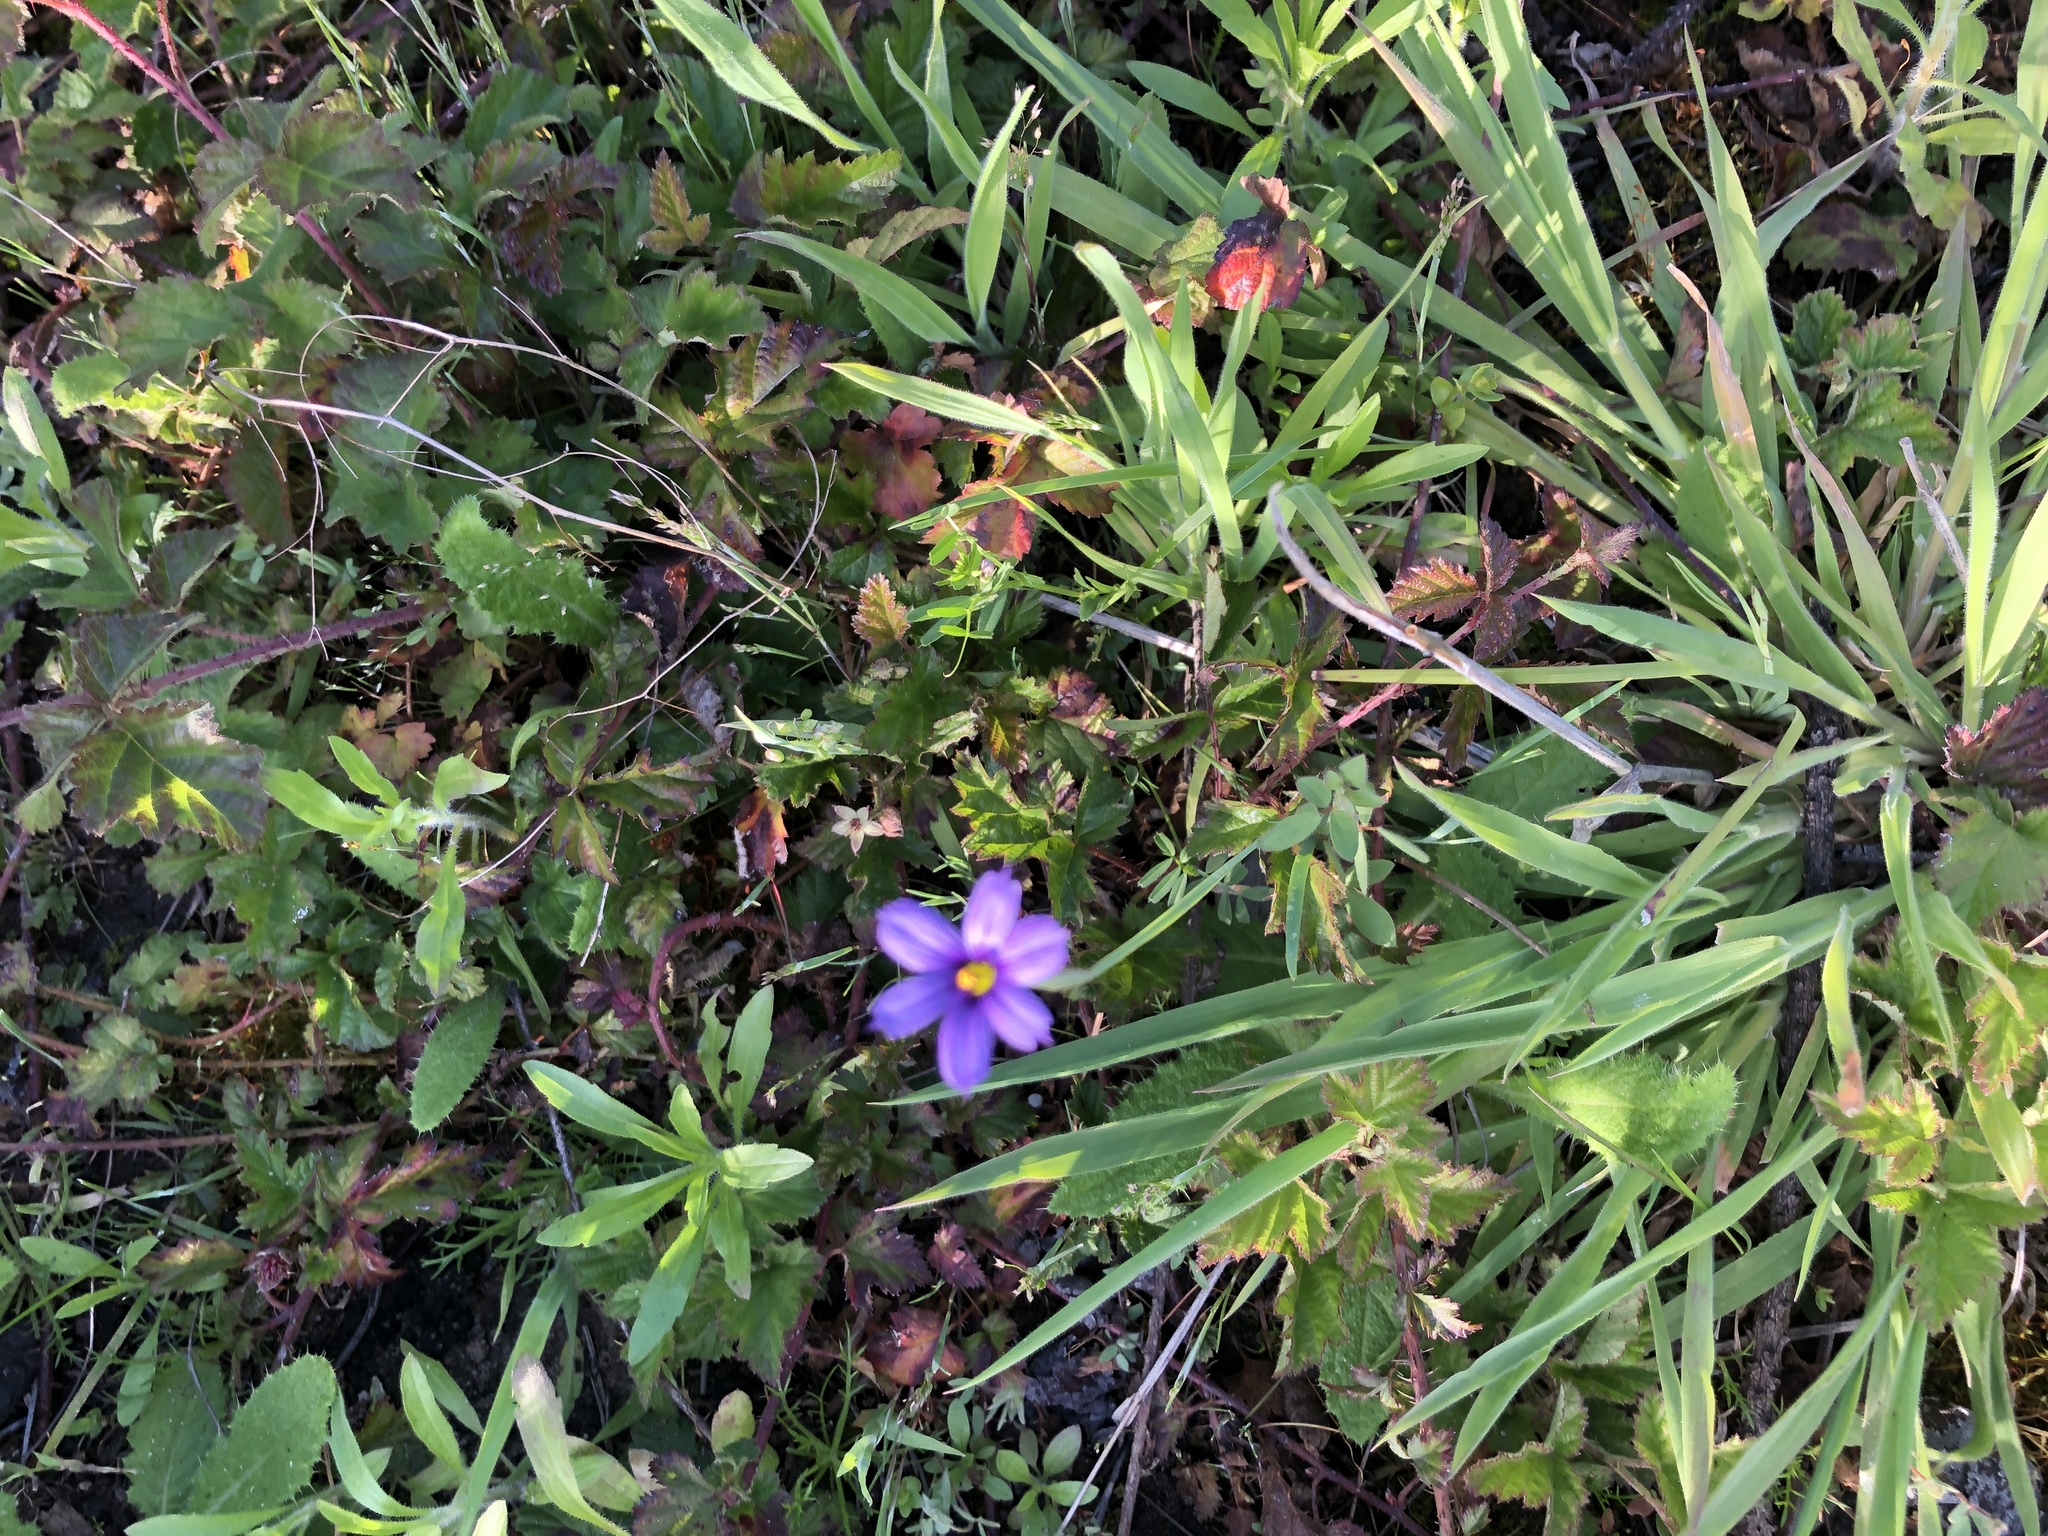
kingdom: Plantae
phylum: Tracheophyta
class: Liliopsida
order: Asparagales
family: Iridaceae
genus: Sisyrinchium
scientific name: Sisyrinchium bellum
